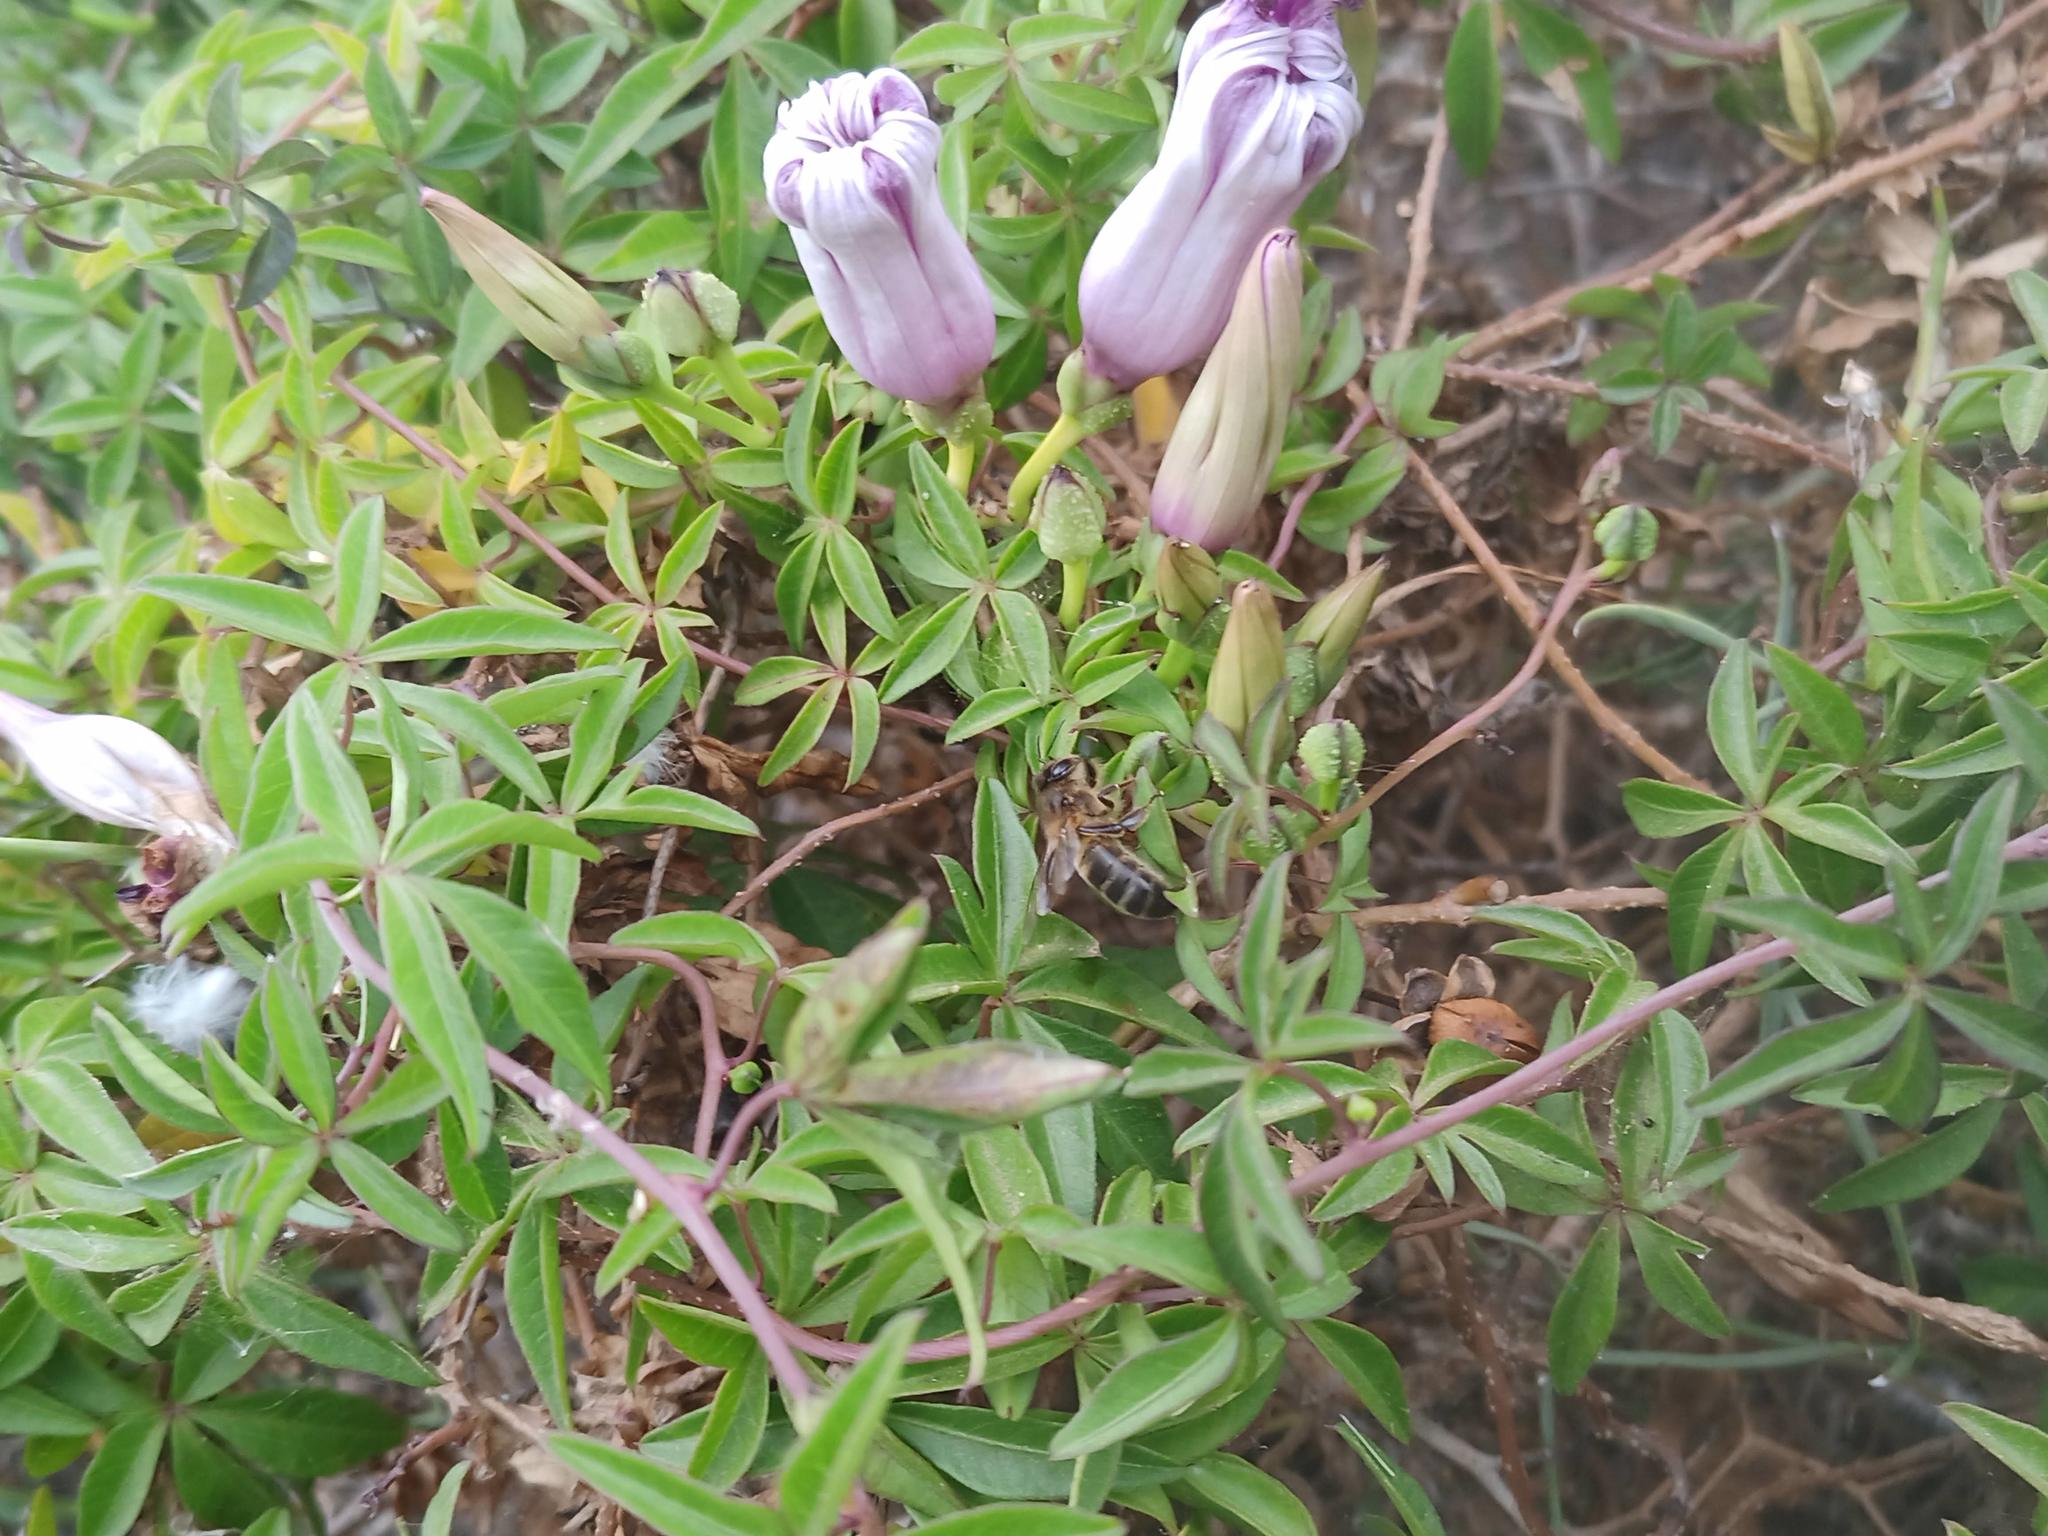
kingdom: Animalia
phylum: Arthropoda
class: Insecta
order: Hymenoptera
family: Apidae
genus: Apis
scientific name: Apis mellifera
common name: Honey bee
